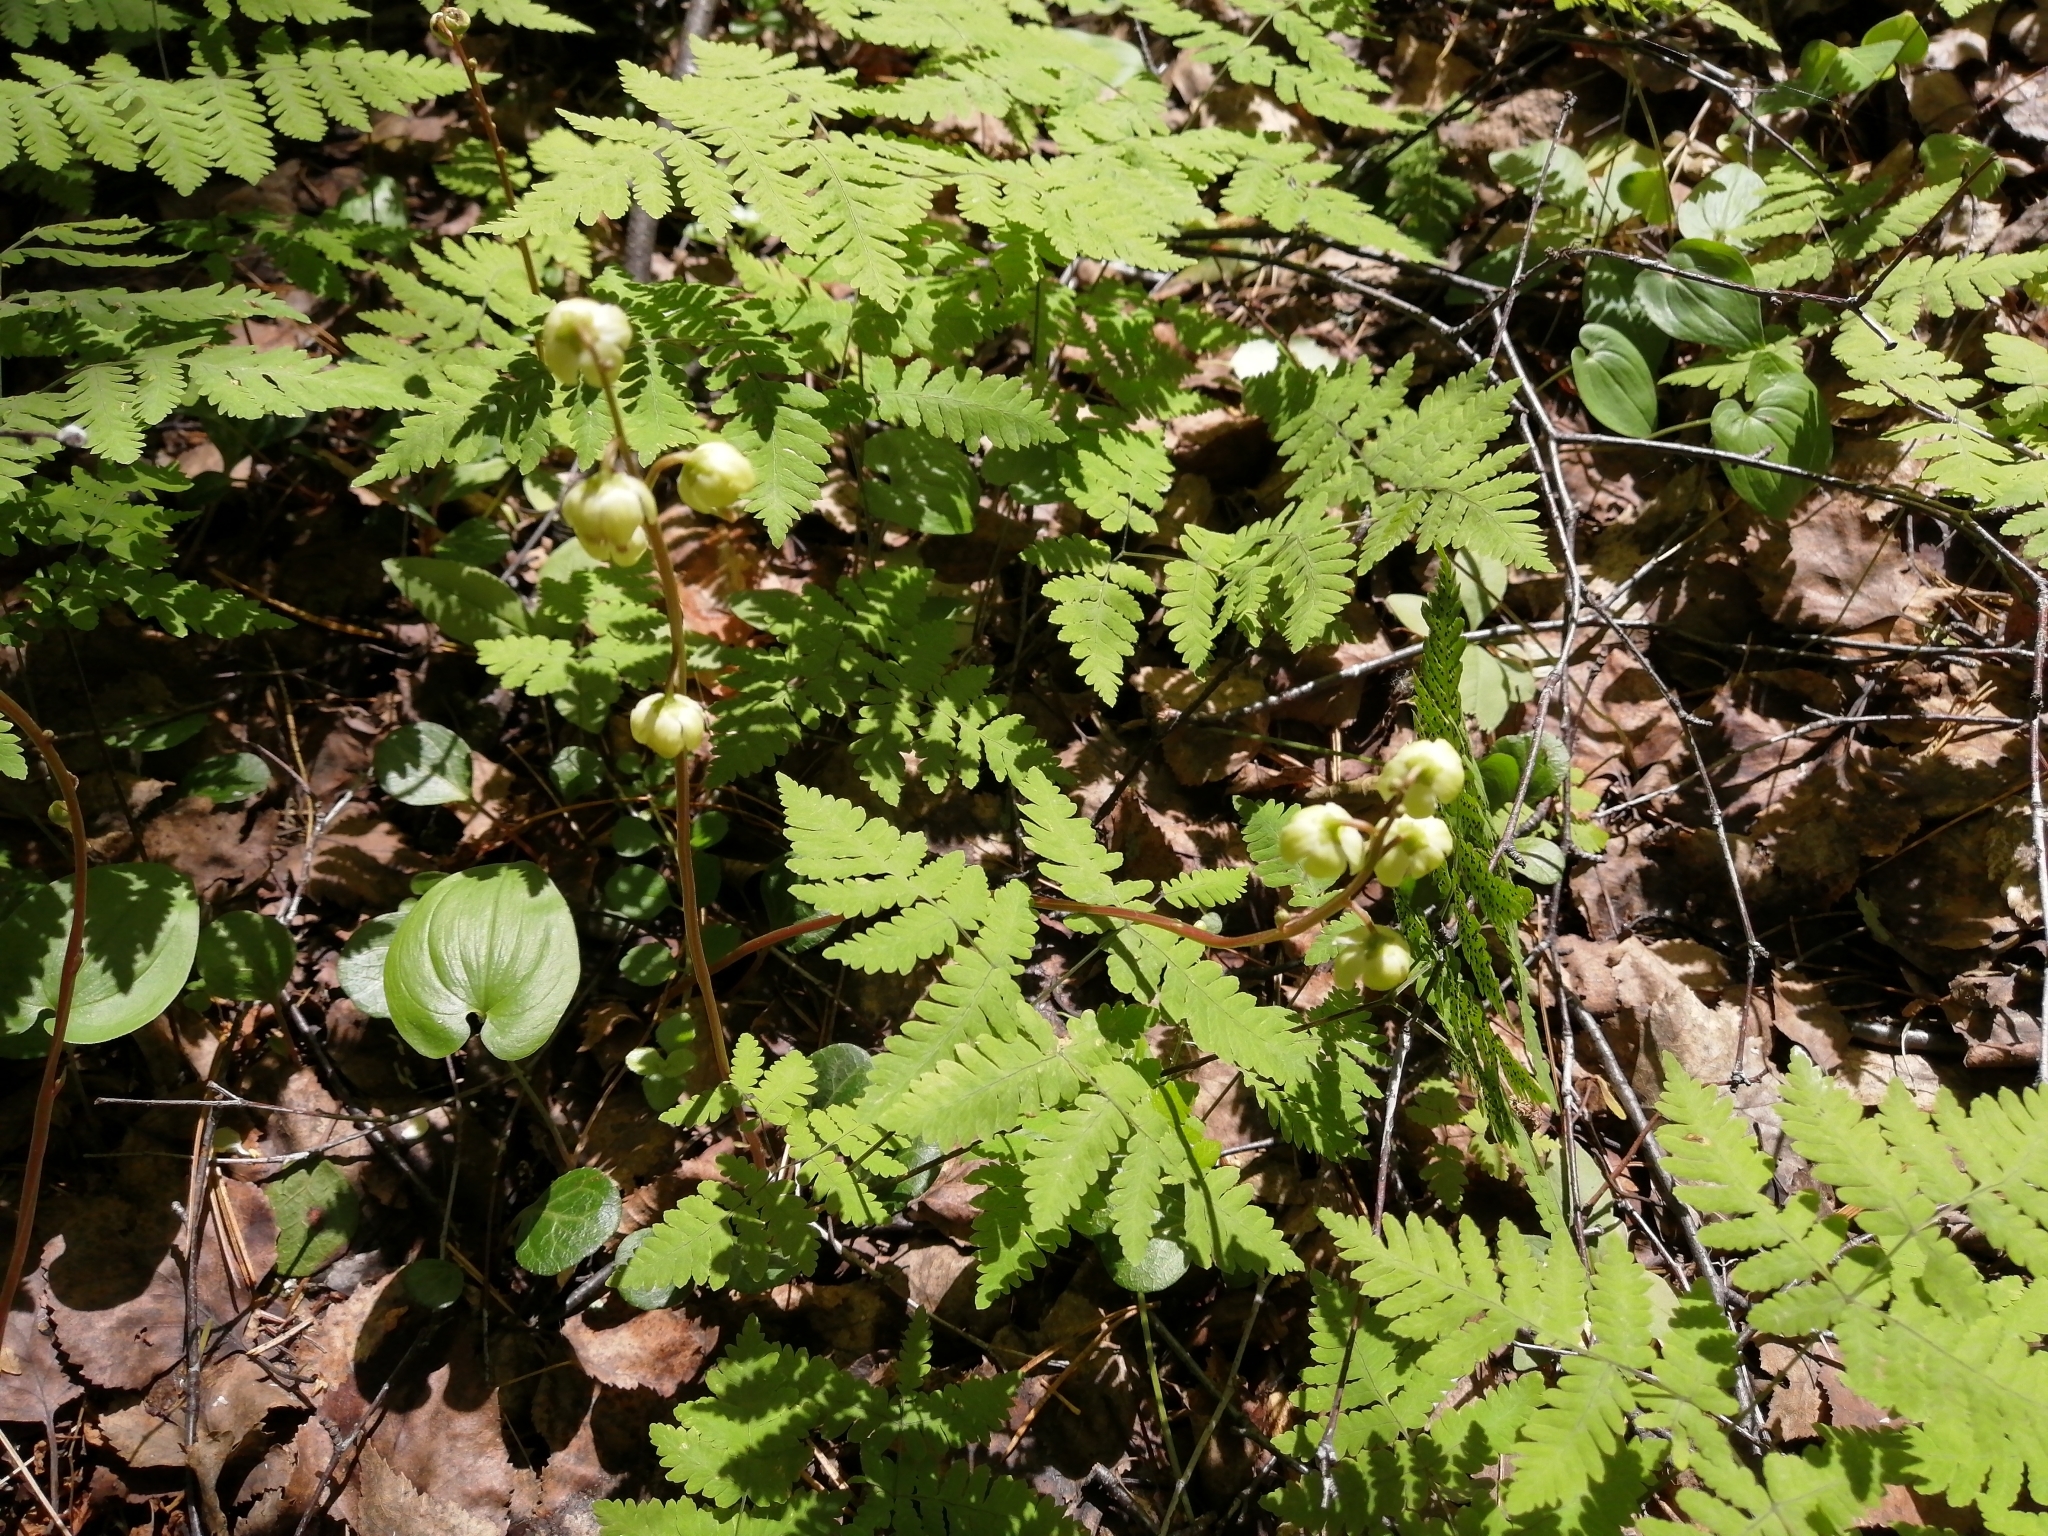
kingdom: Plantae
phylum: Tracheophyta
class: Magnoliopsida
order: Ericales
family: Ericaceae
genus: Pyrola
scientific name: Pyrola chlorantha
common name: Green wintergreen
